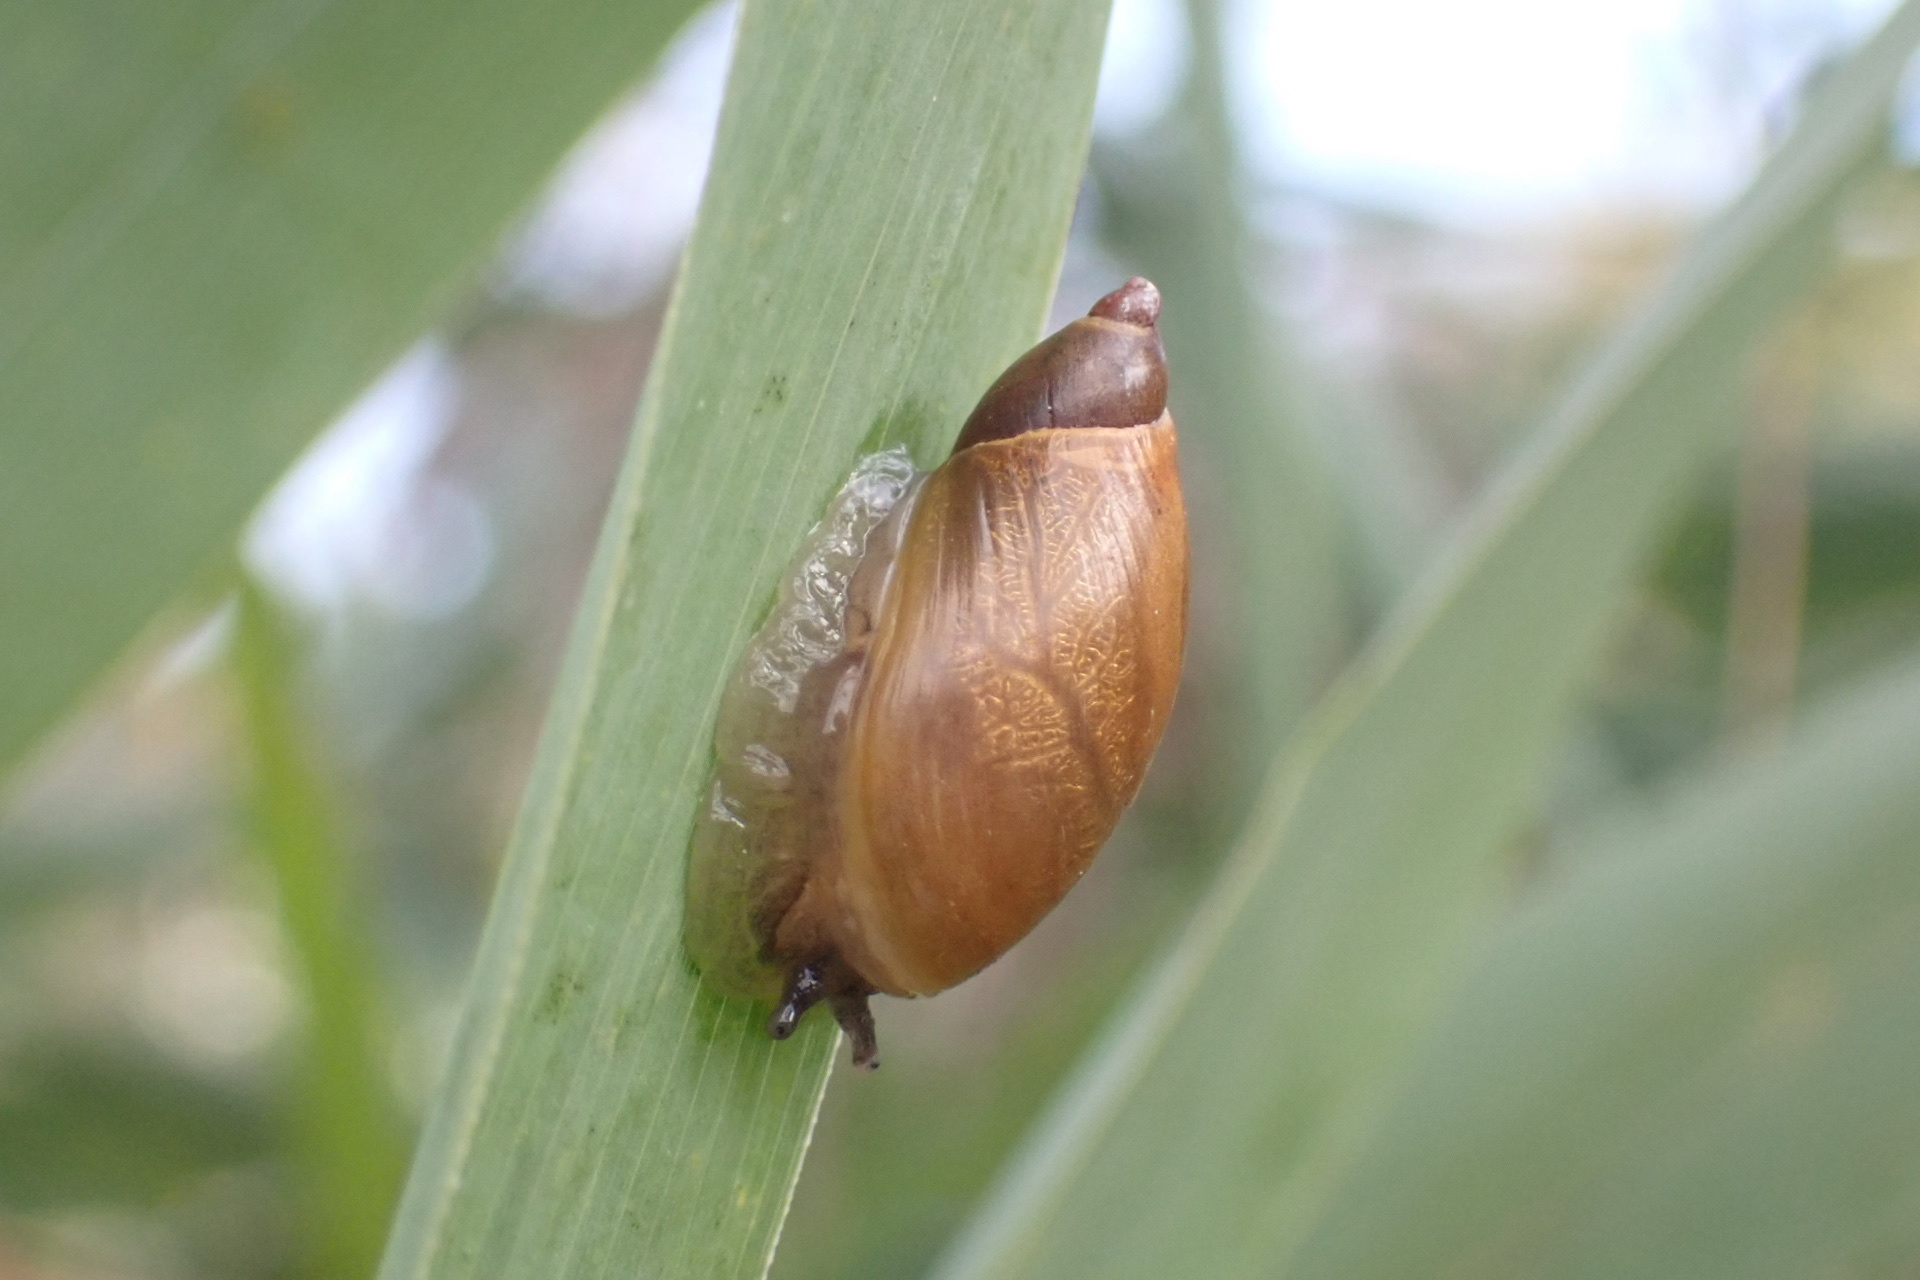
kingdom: Animalia
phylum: Mollusca
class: Gastropoda
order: Stylommatophora
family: Succineidae
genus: Succinea
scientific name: Succinea putris
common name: European ambersnail
